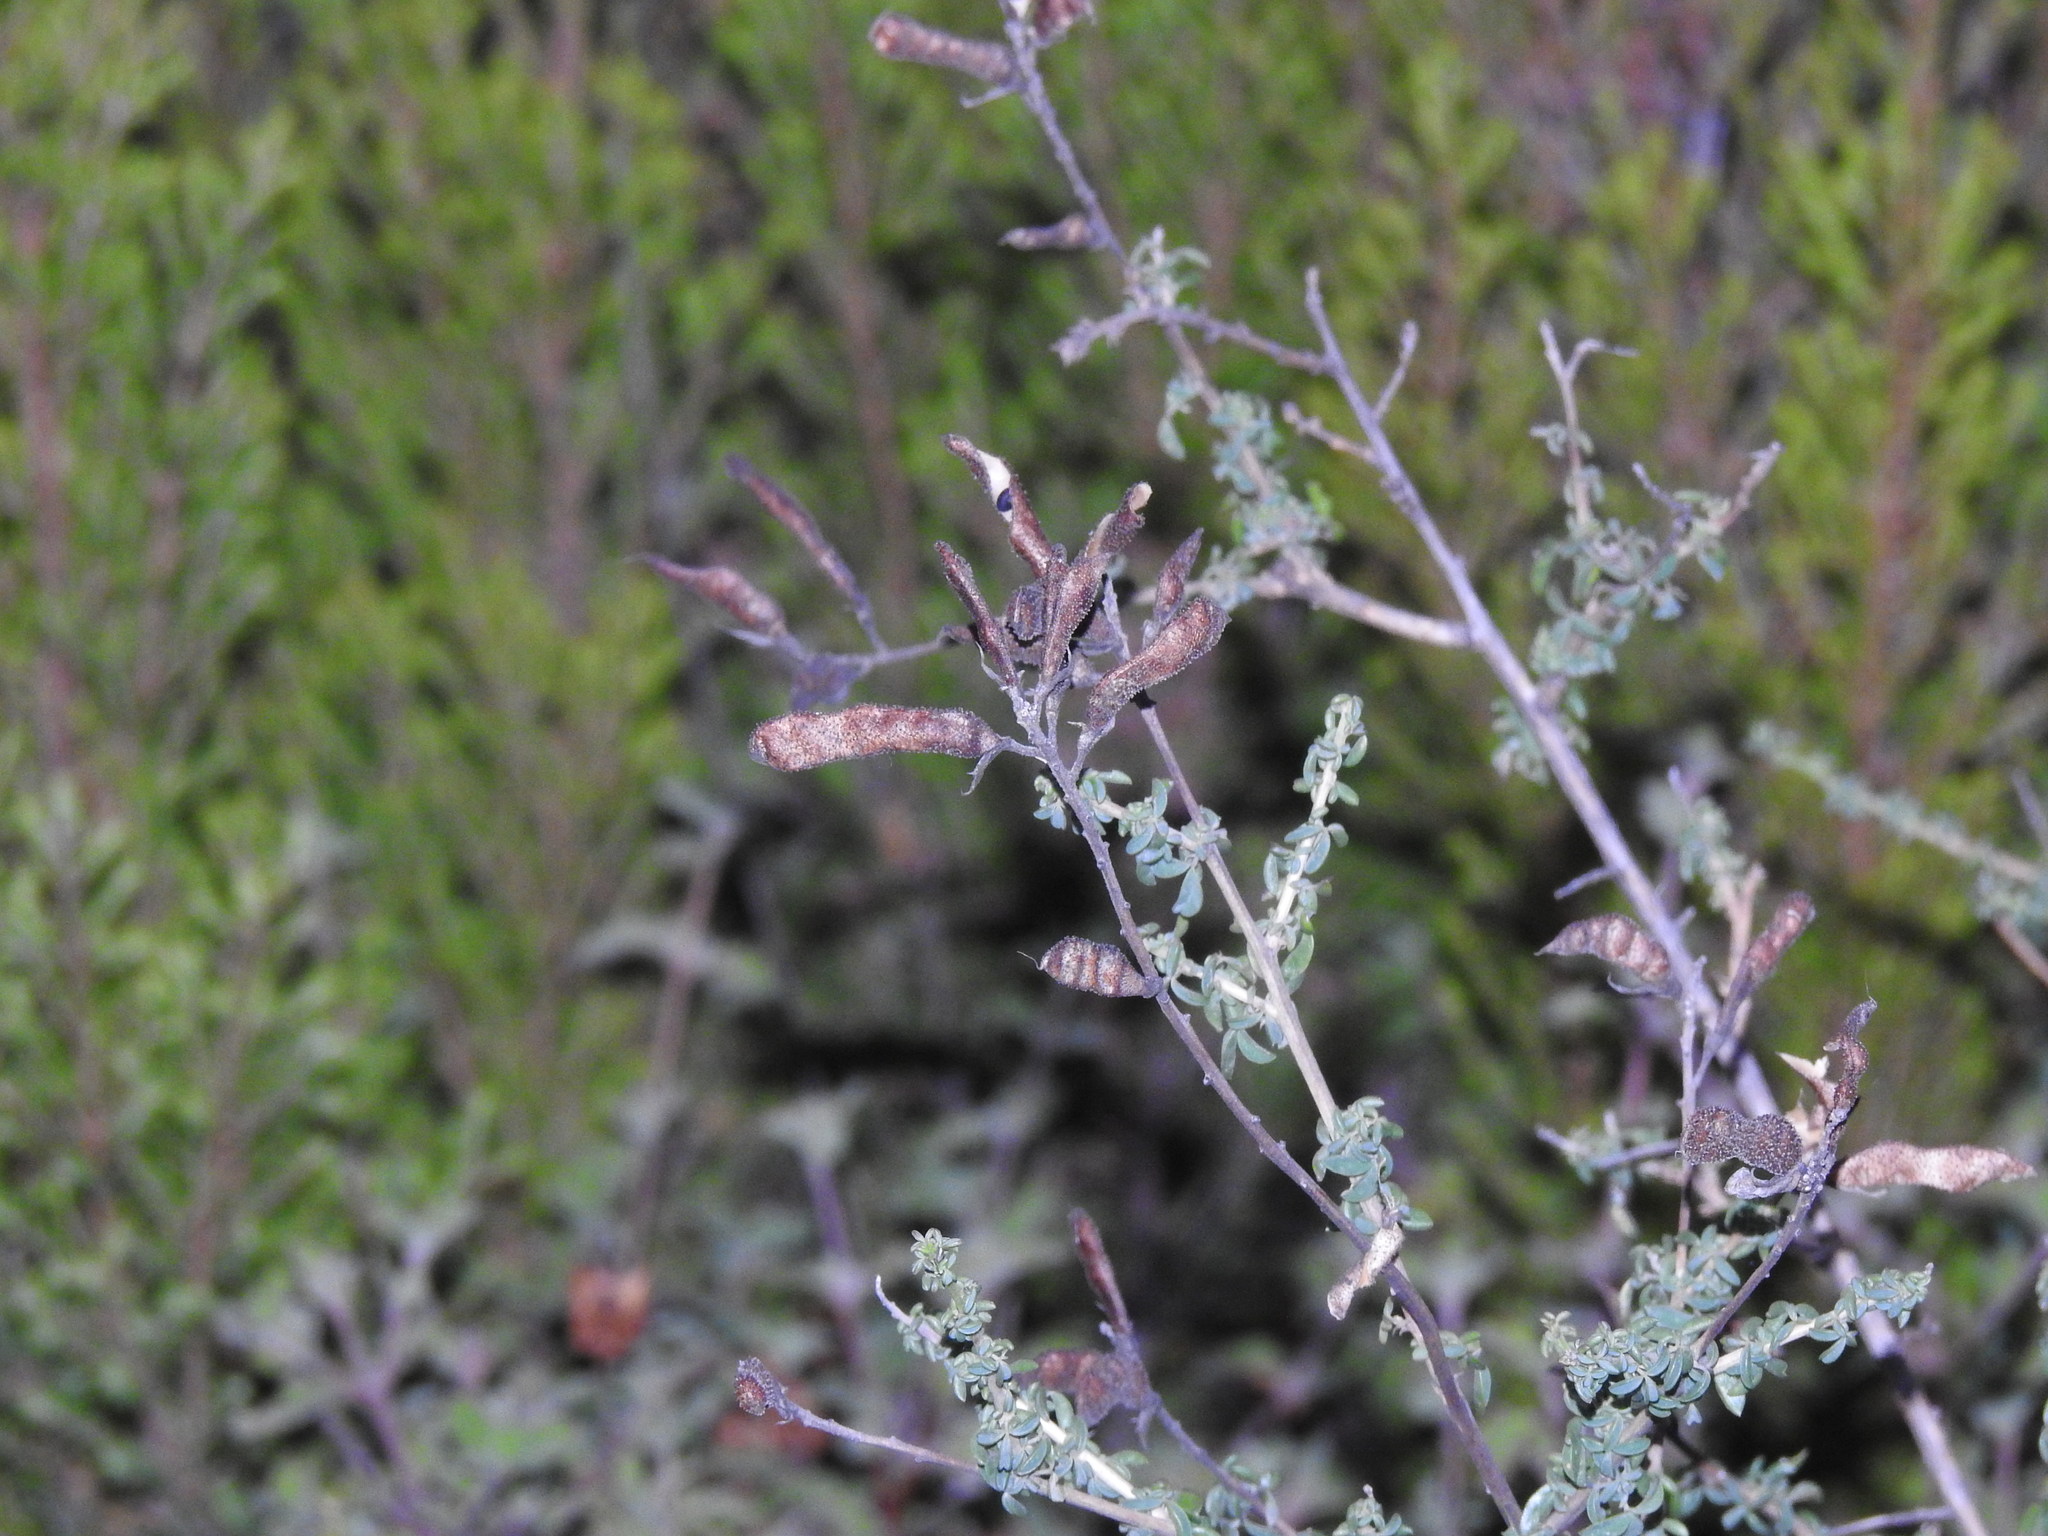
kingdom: Plantae
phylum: Tracheophyta
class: Magnoliopsida
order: Fabales
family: Fabaceae
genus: Adenocarpus
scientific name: Adenocarpus hispanicus
